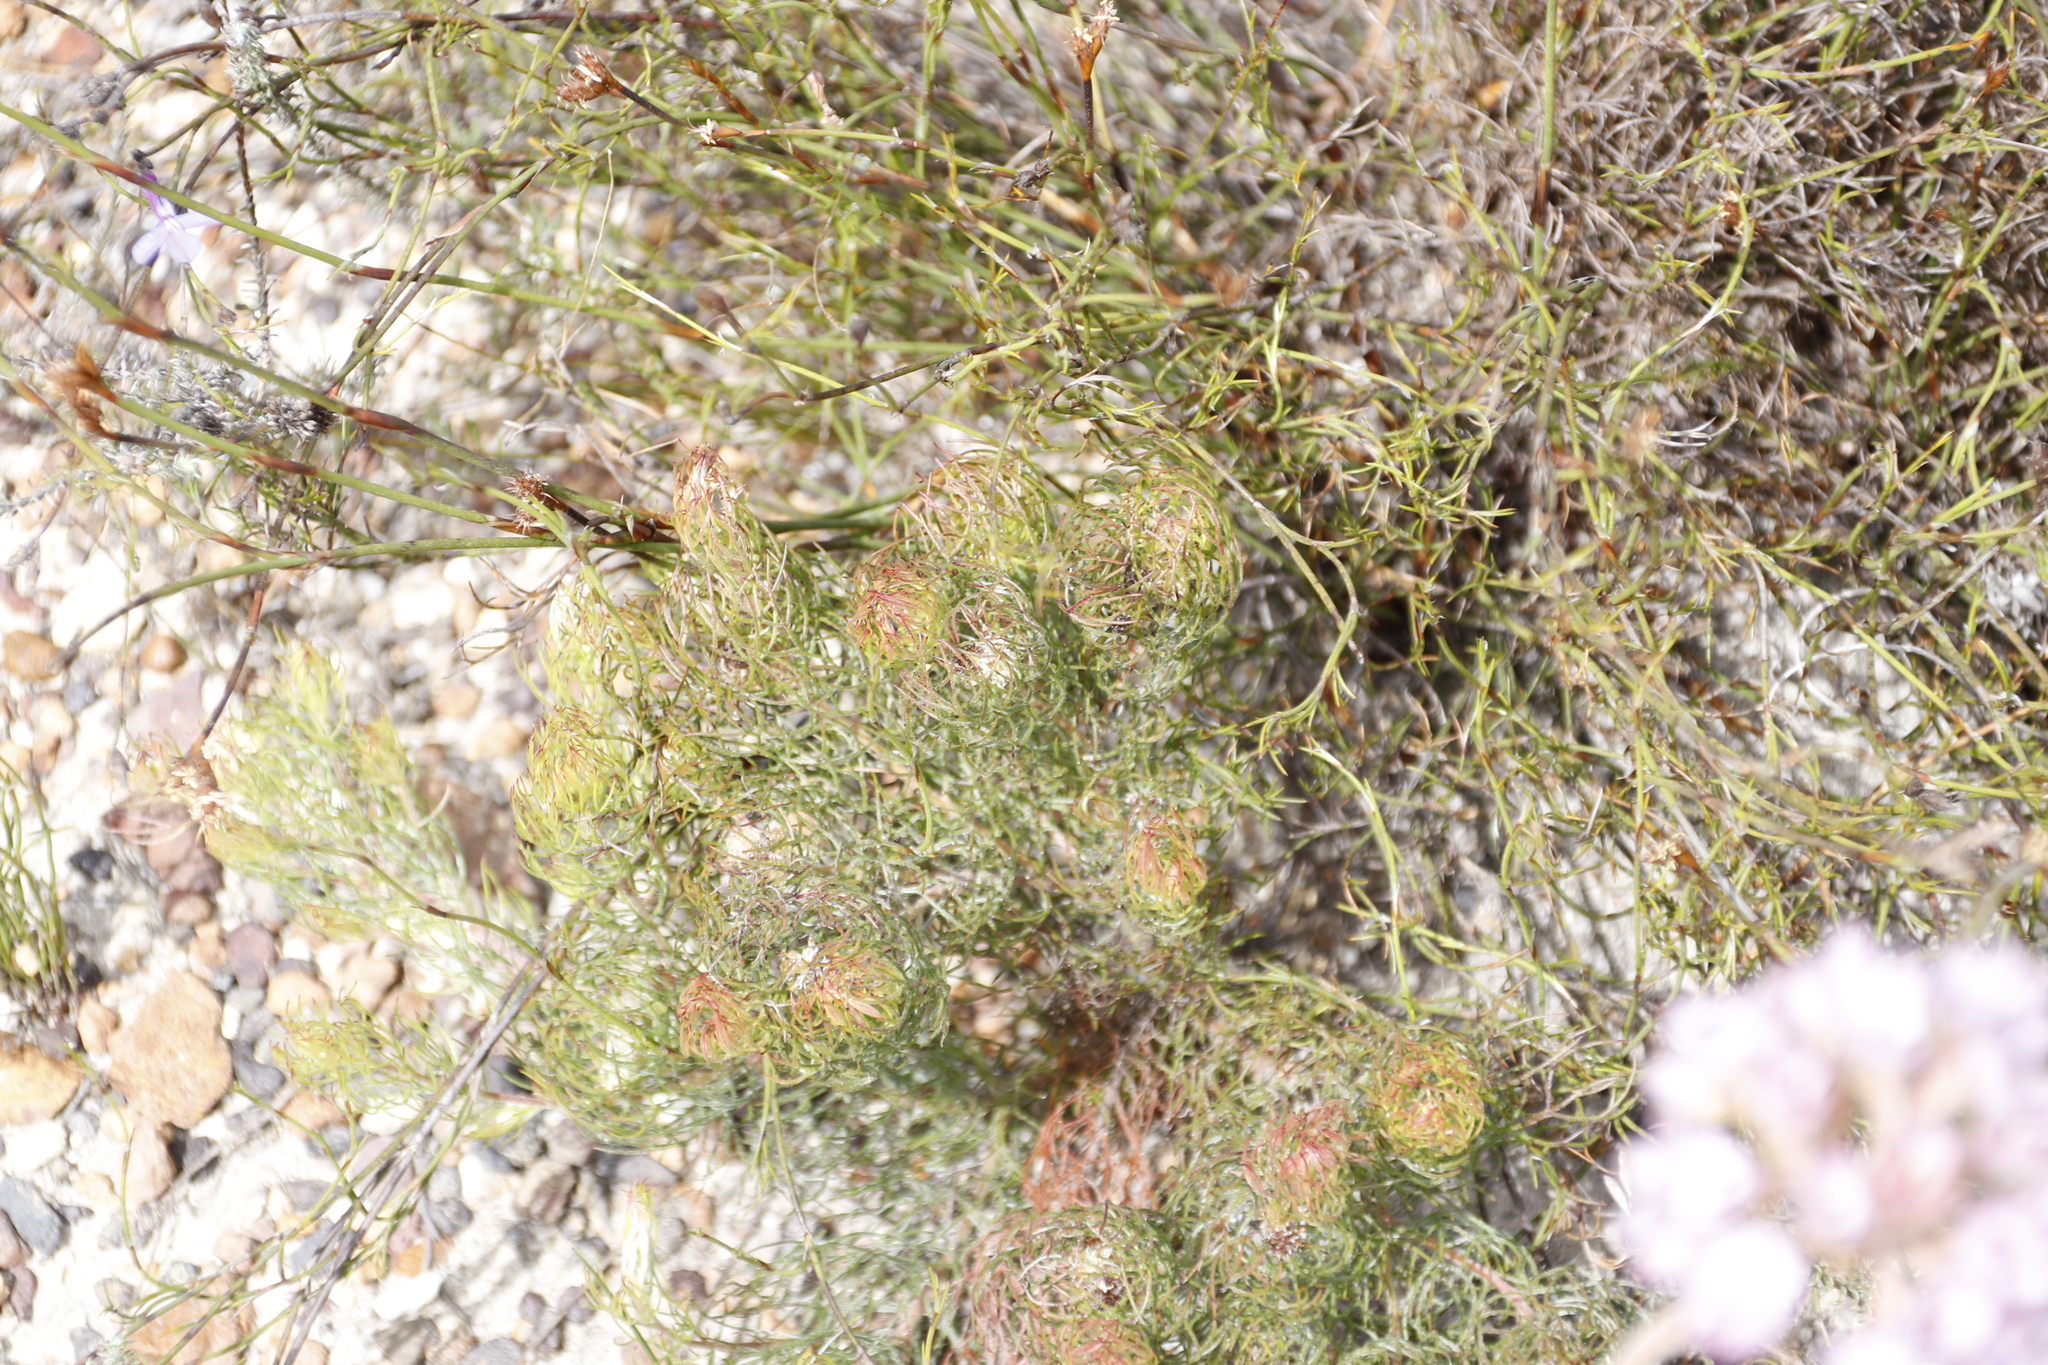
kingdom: Plantae
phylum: Tracheophyta
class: Magnoliopsida
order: Proteales
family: Proteaceae
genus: Serruria
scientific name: Serruria inconspicua
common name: Cryptic spiderhead
